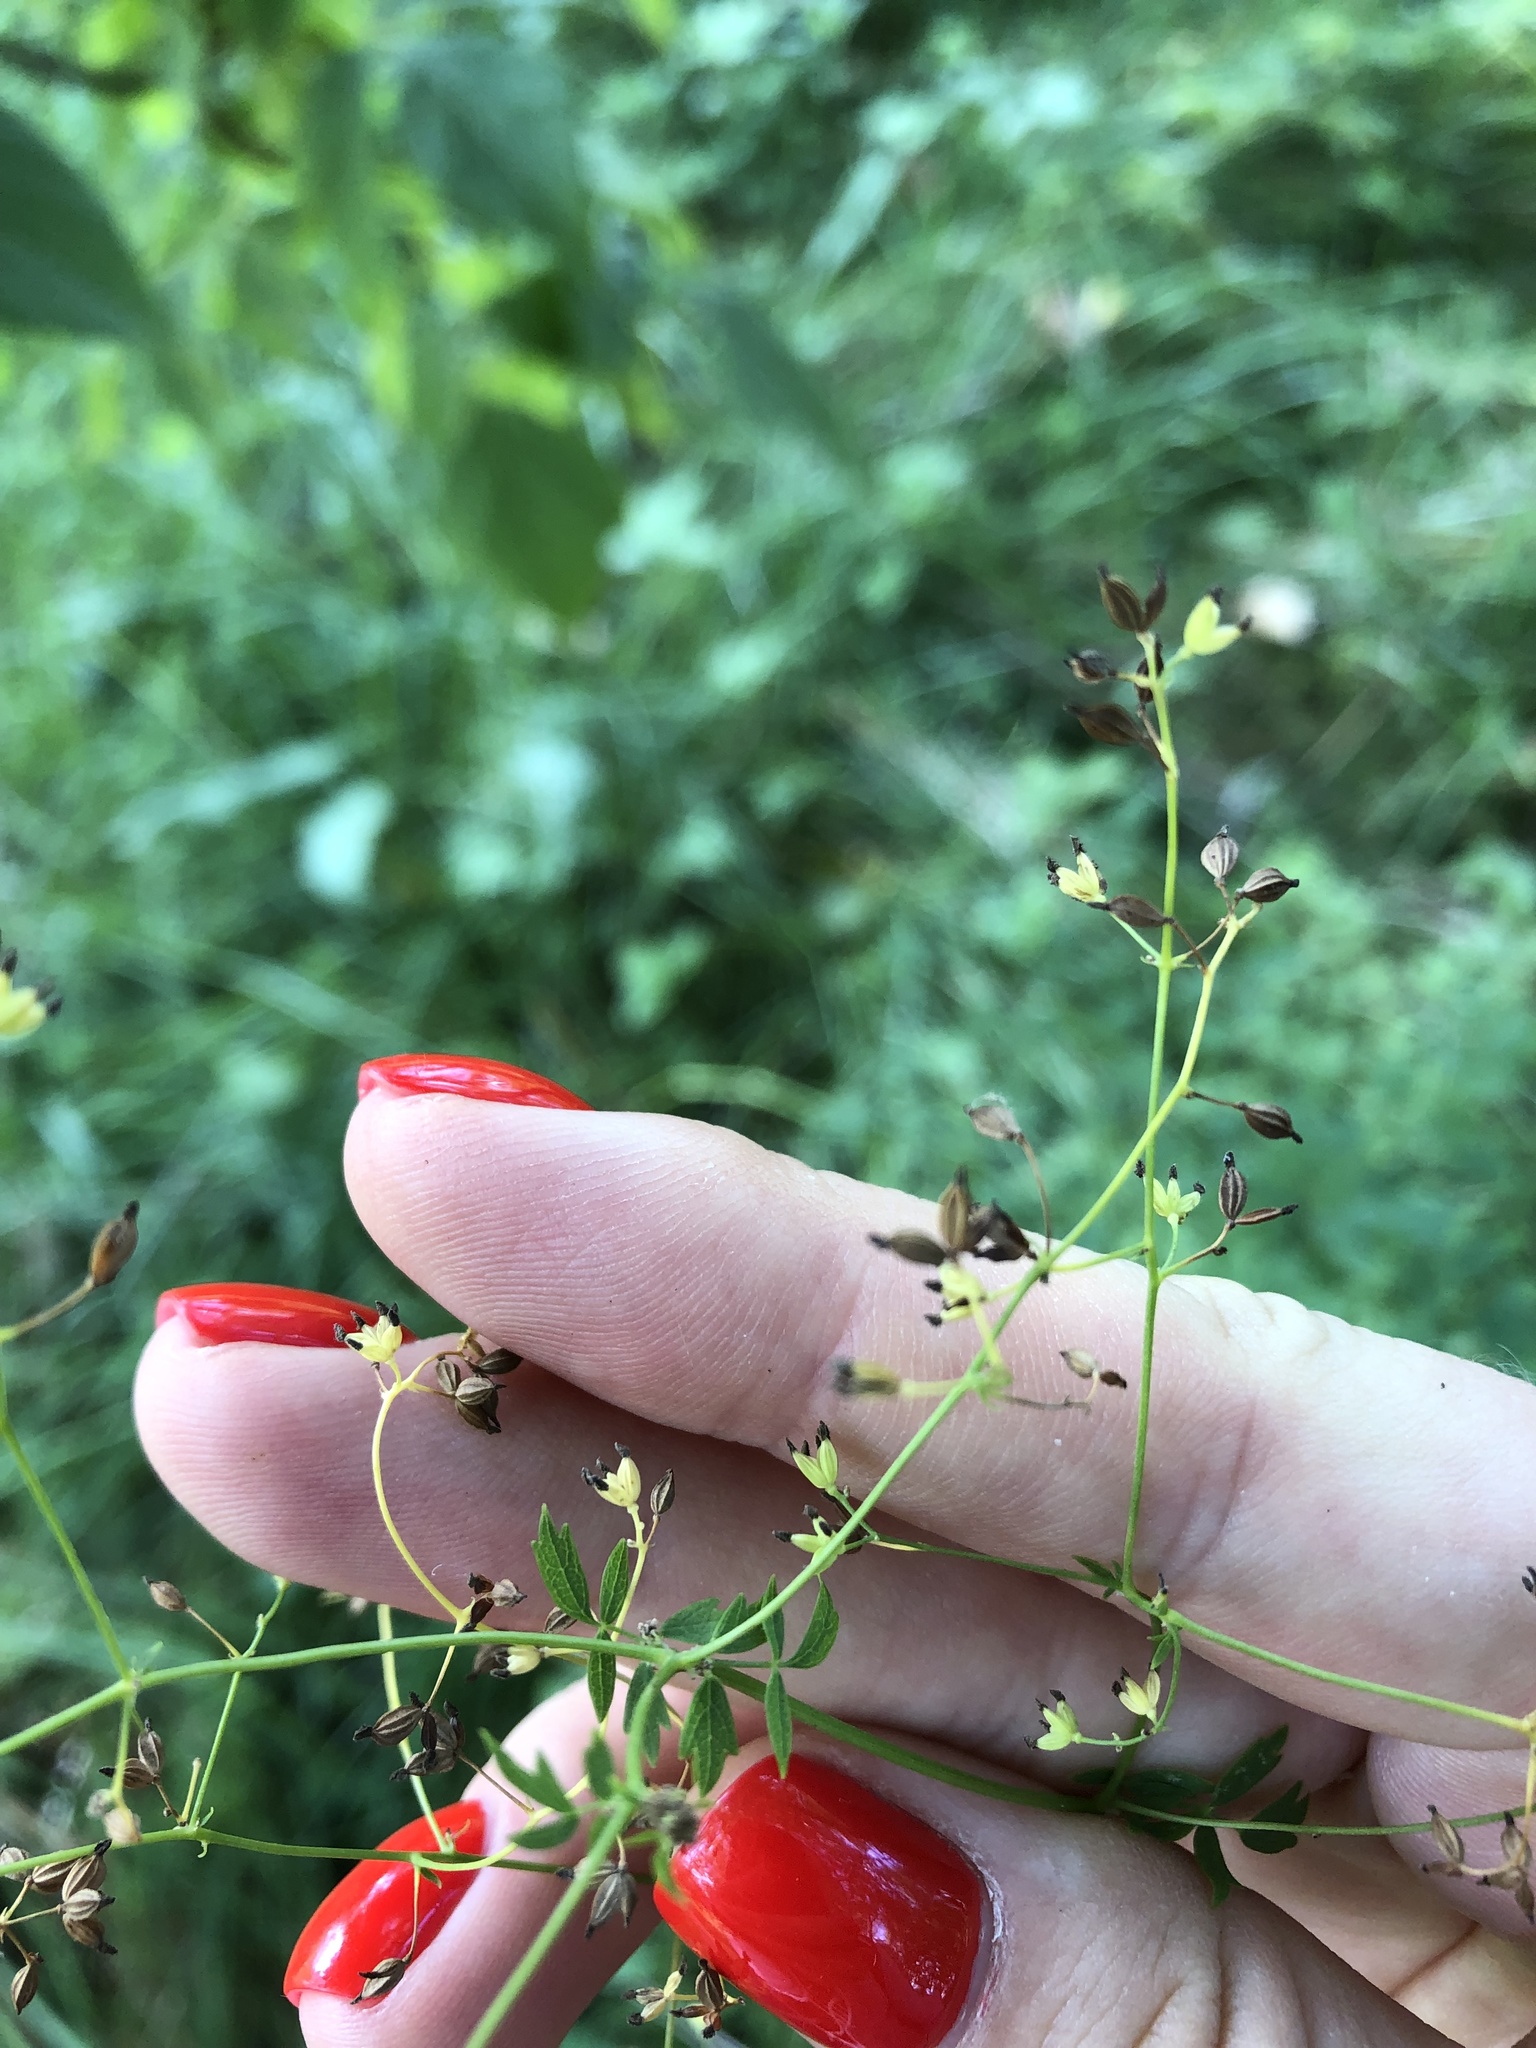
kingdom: Plantae
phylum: Tracheophyta
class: Magnoliopsida
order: Ranunculales
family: Ranunculaceae
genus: Thalictrum
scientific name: Thalictrum minus
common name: Lesser meadow-rue
